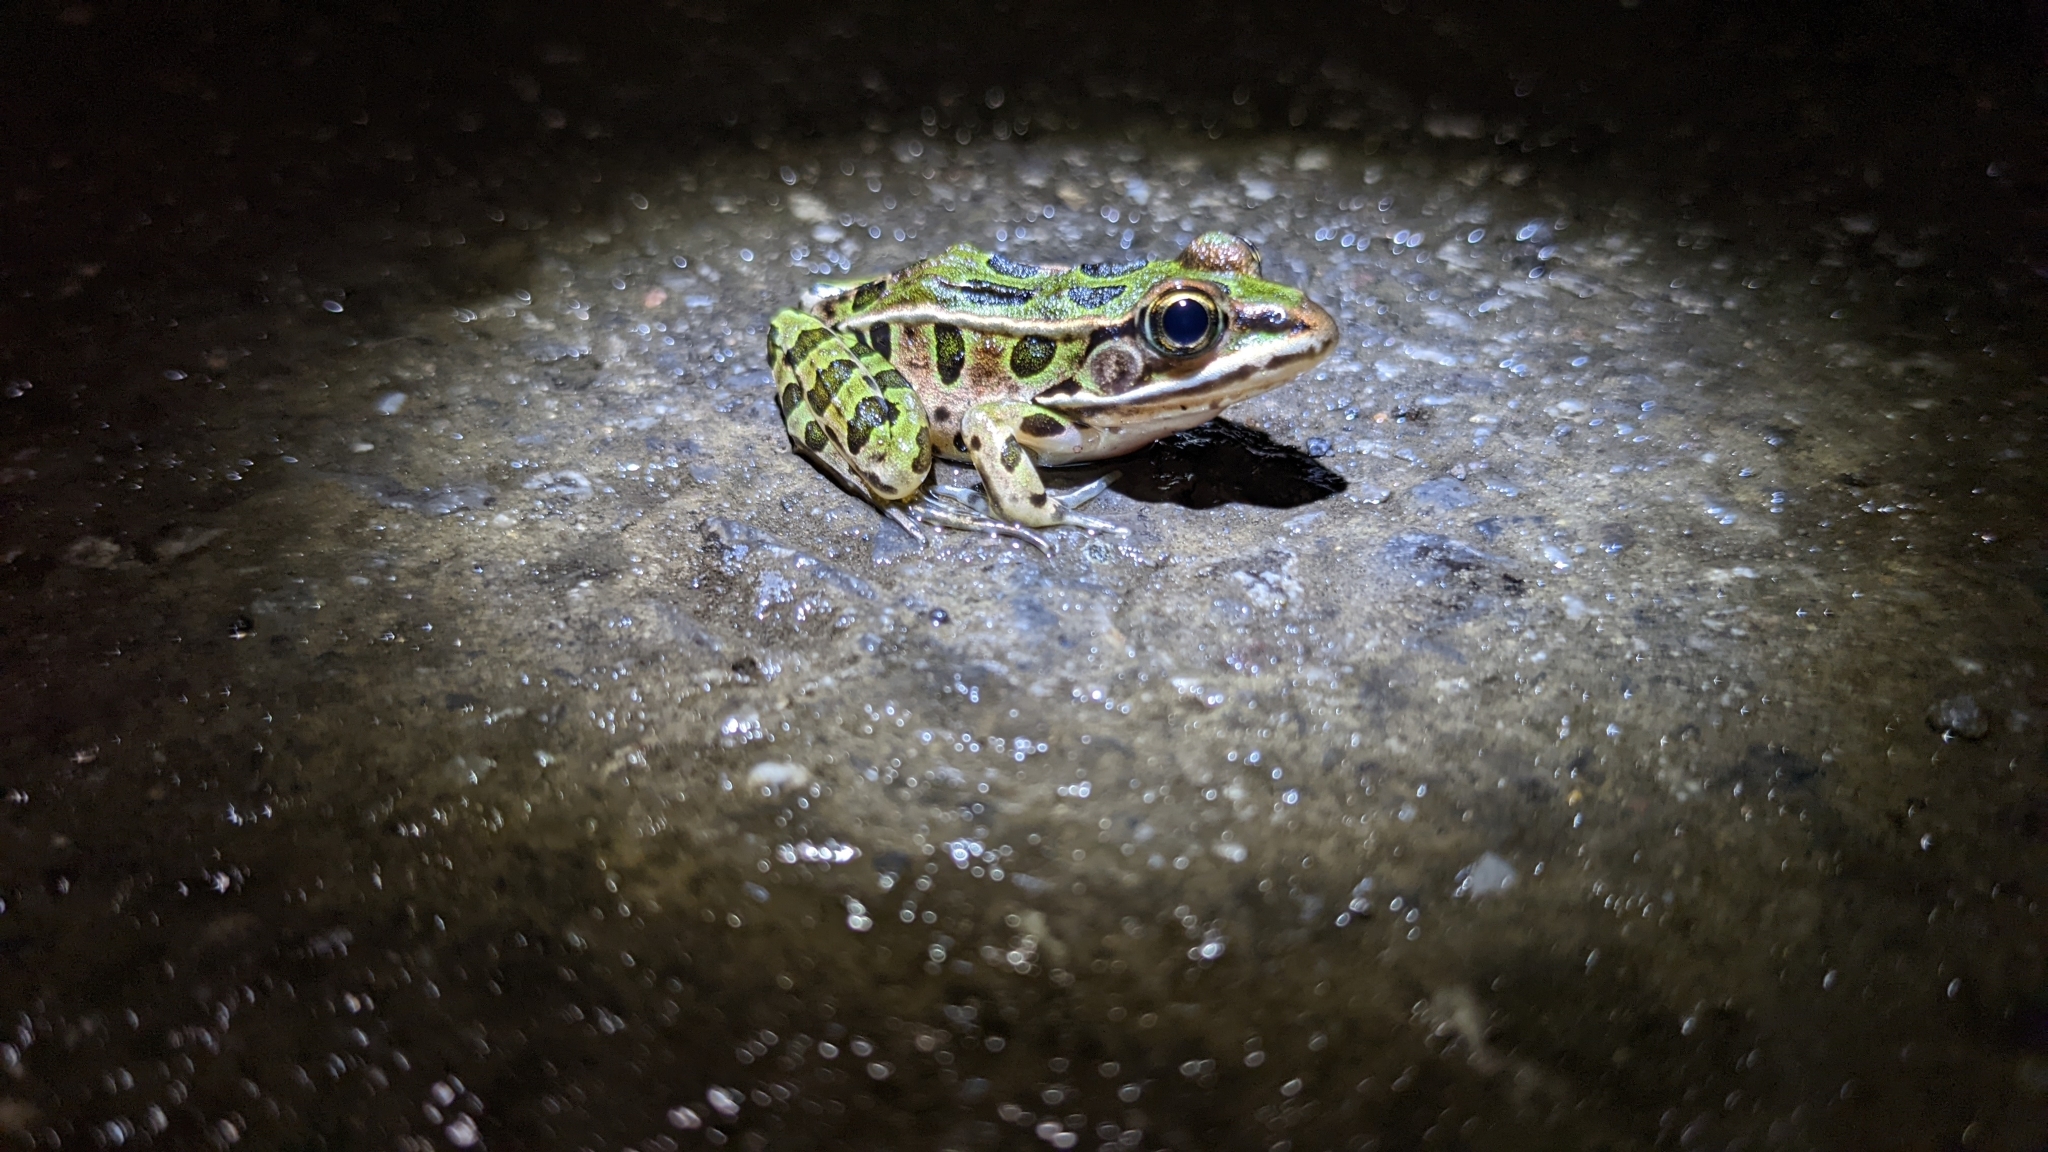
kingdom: Animalia
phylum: Chordata
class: Amphibia
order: Anura
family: Ranidae
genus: Lithobates
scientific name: Lithobates pipiens
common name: Northern leopard frog
